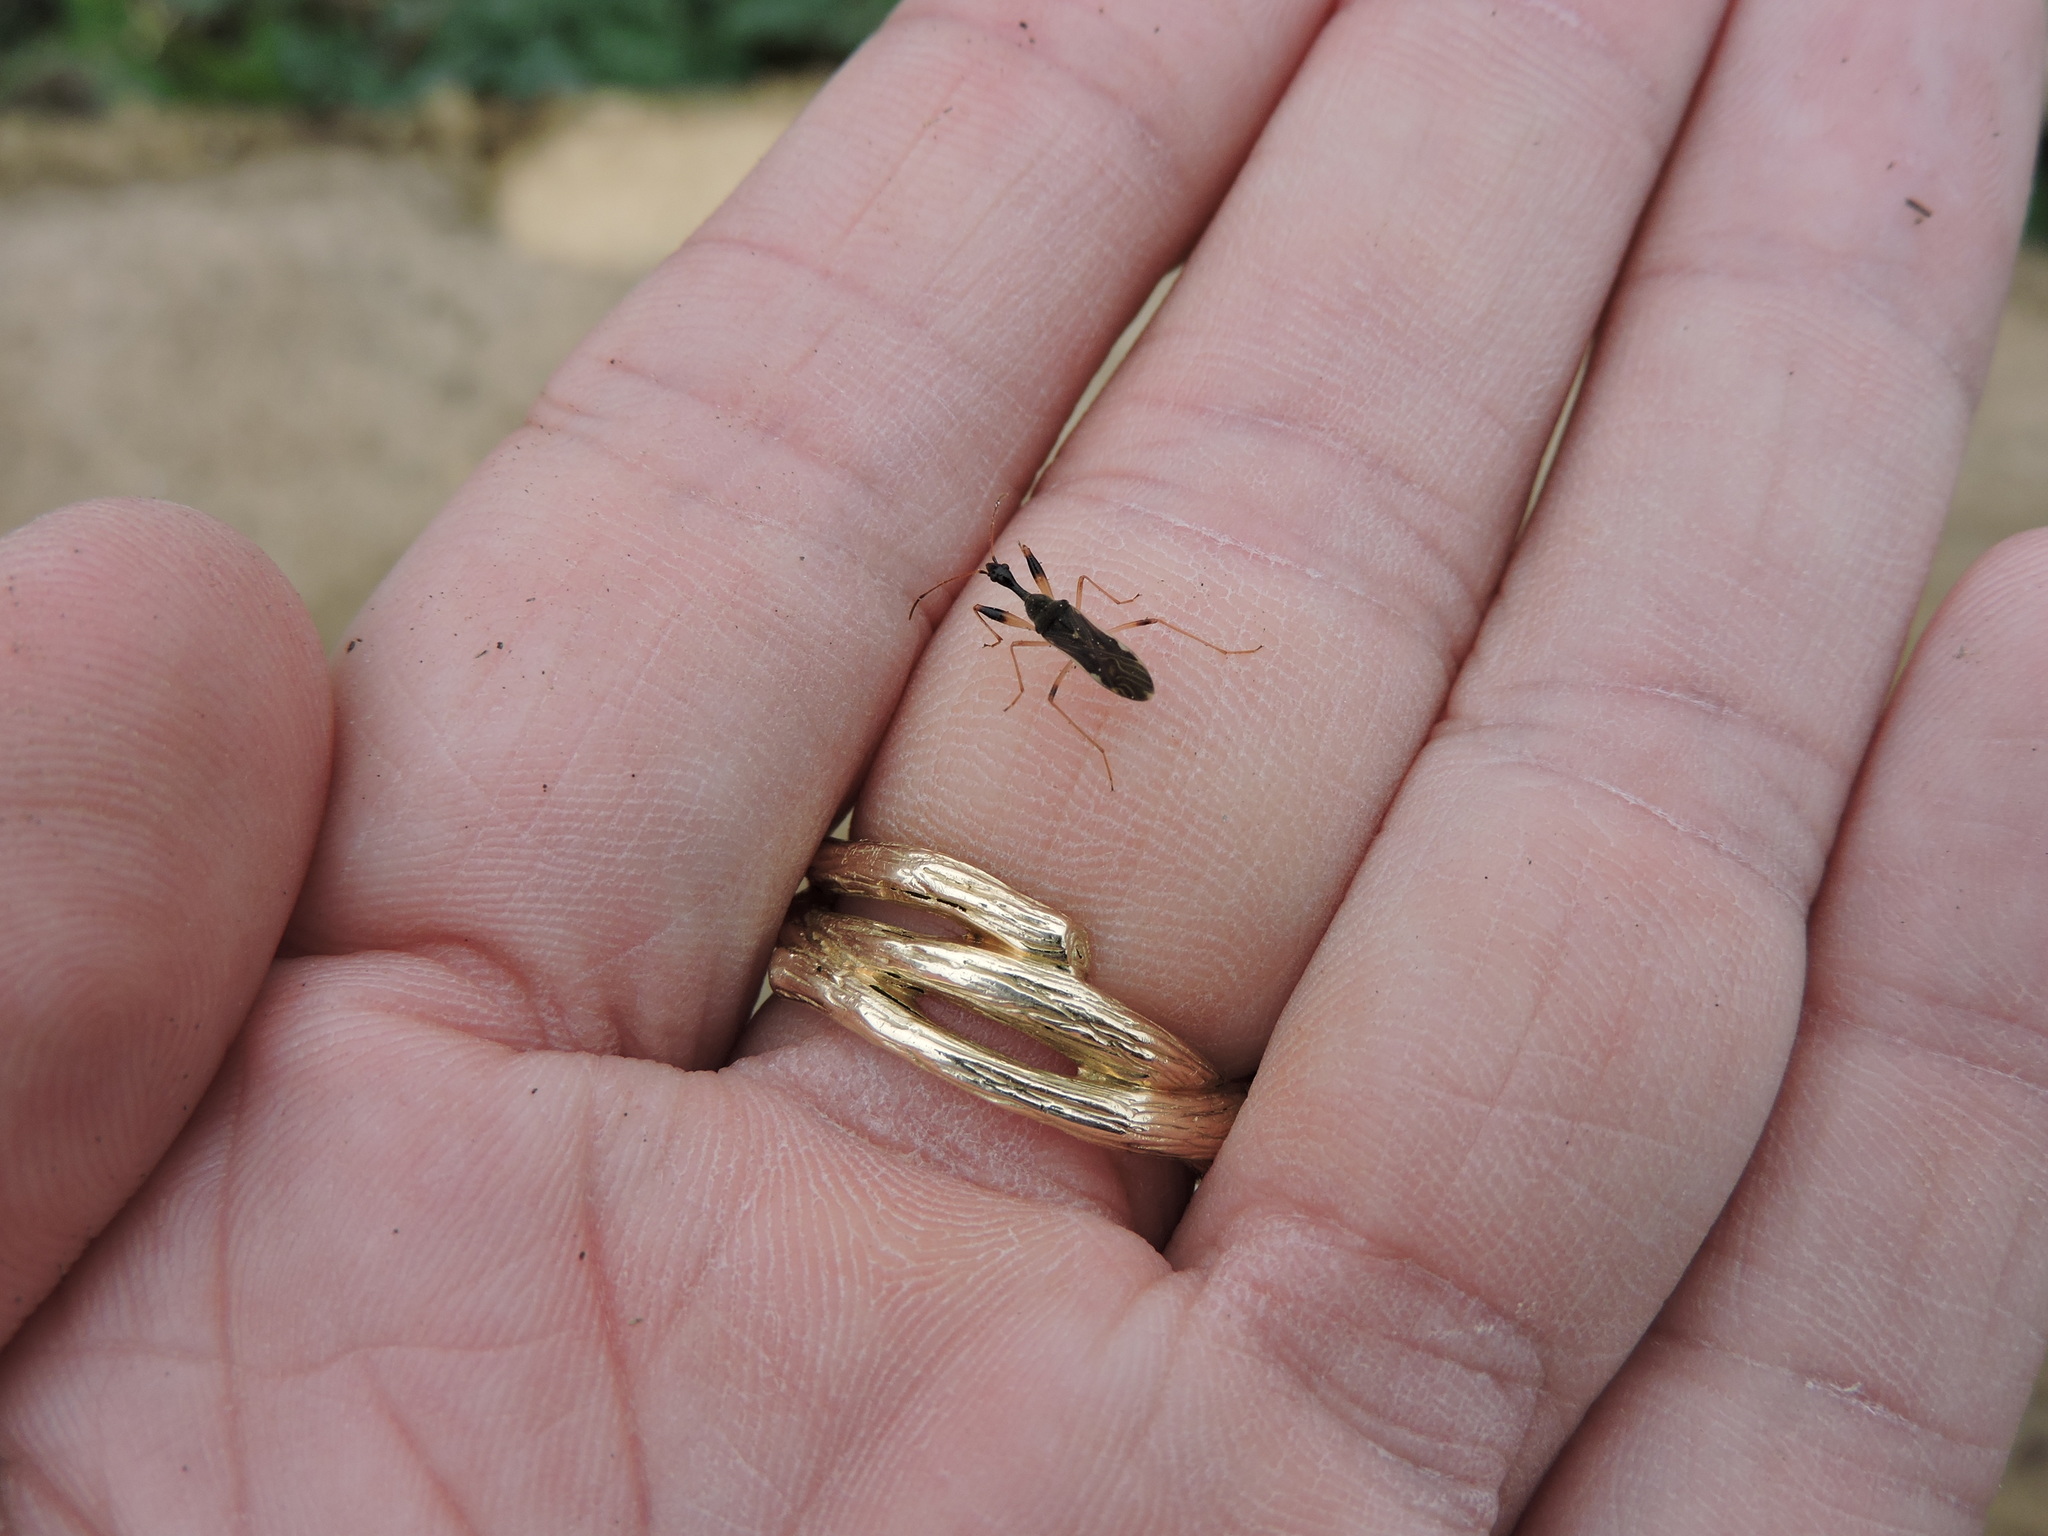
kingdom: Animalia
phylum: Arthropoda
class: Insecta
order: Hemiptera
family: Rhyparochromidae
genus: Myodocha
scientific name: Myodocha serripes
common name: Long-necked seed bug
